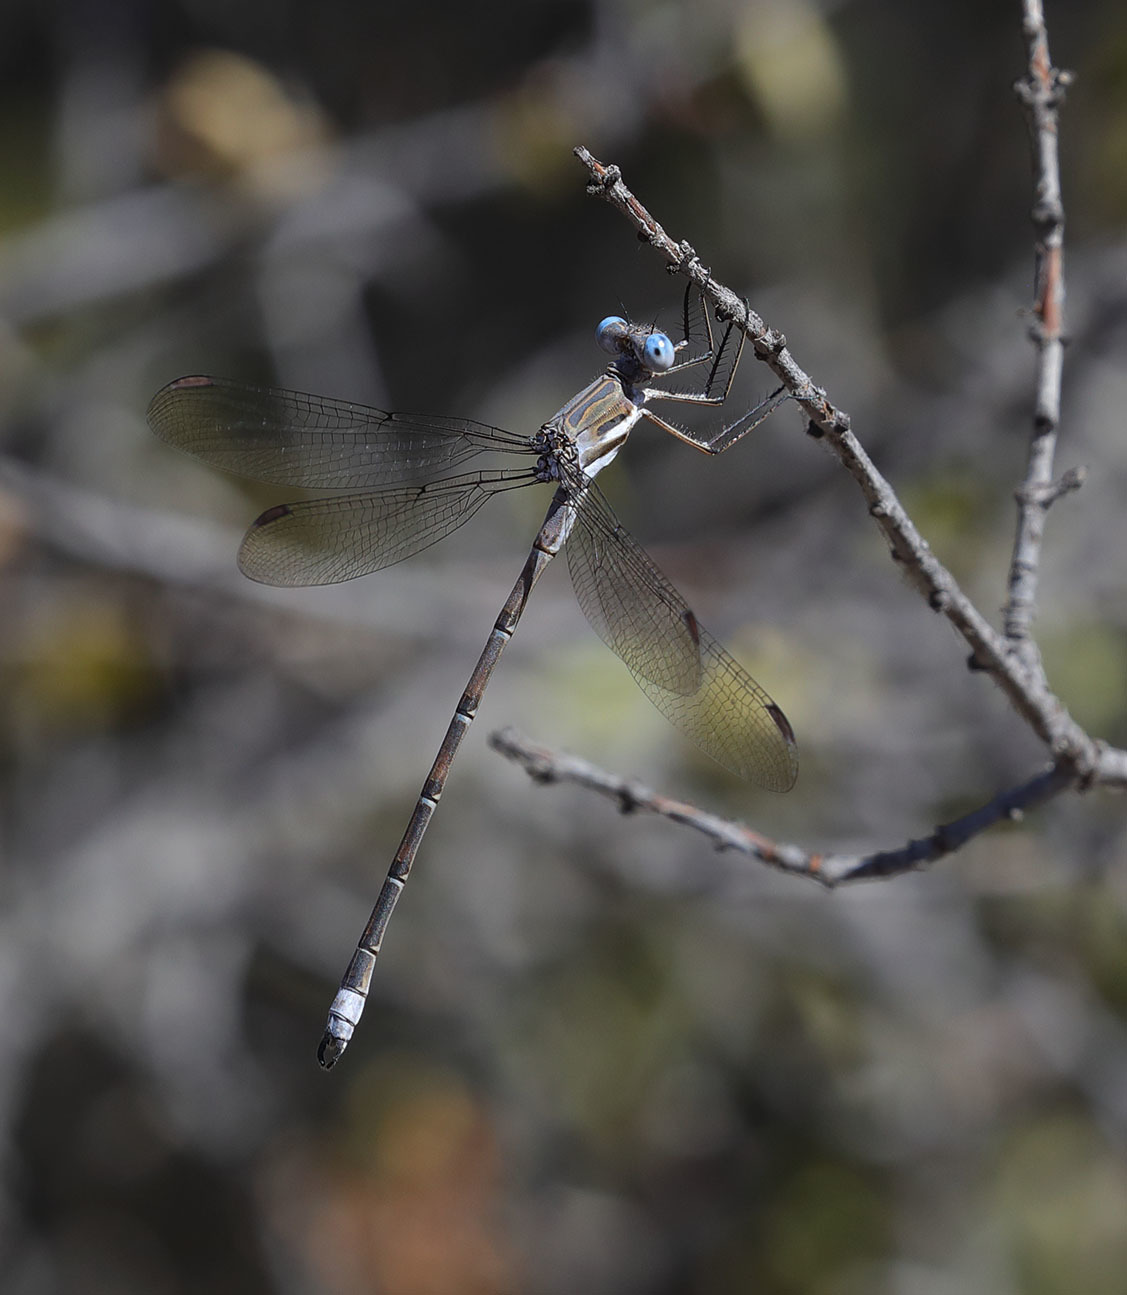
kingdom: Animalia
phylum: Arthropoda
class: Insecta
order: Odonata
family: Lestidae
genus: Archilestes
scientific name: Archilestes californicus
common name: California spreadwing
